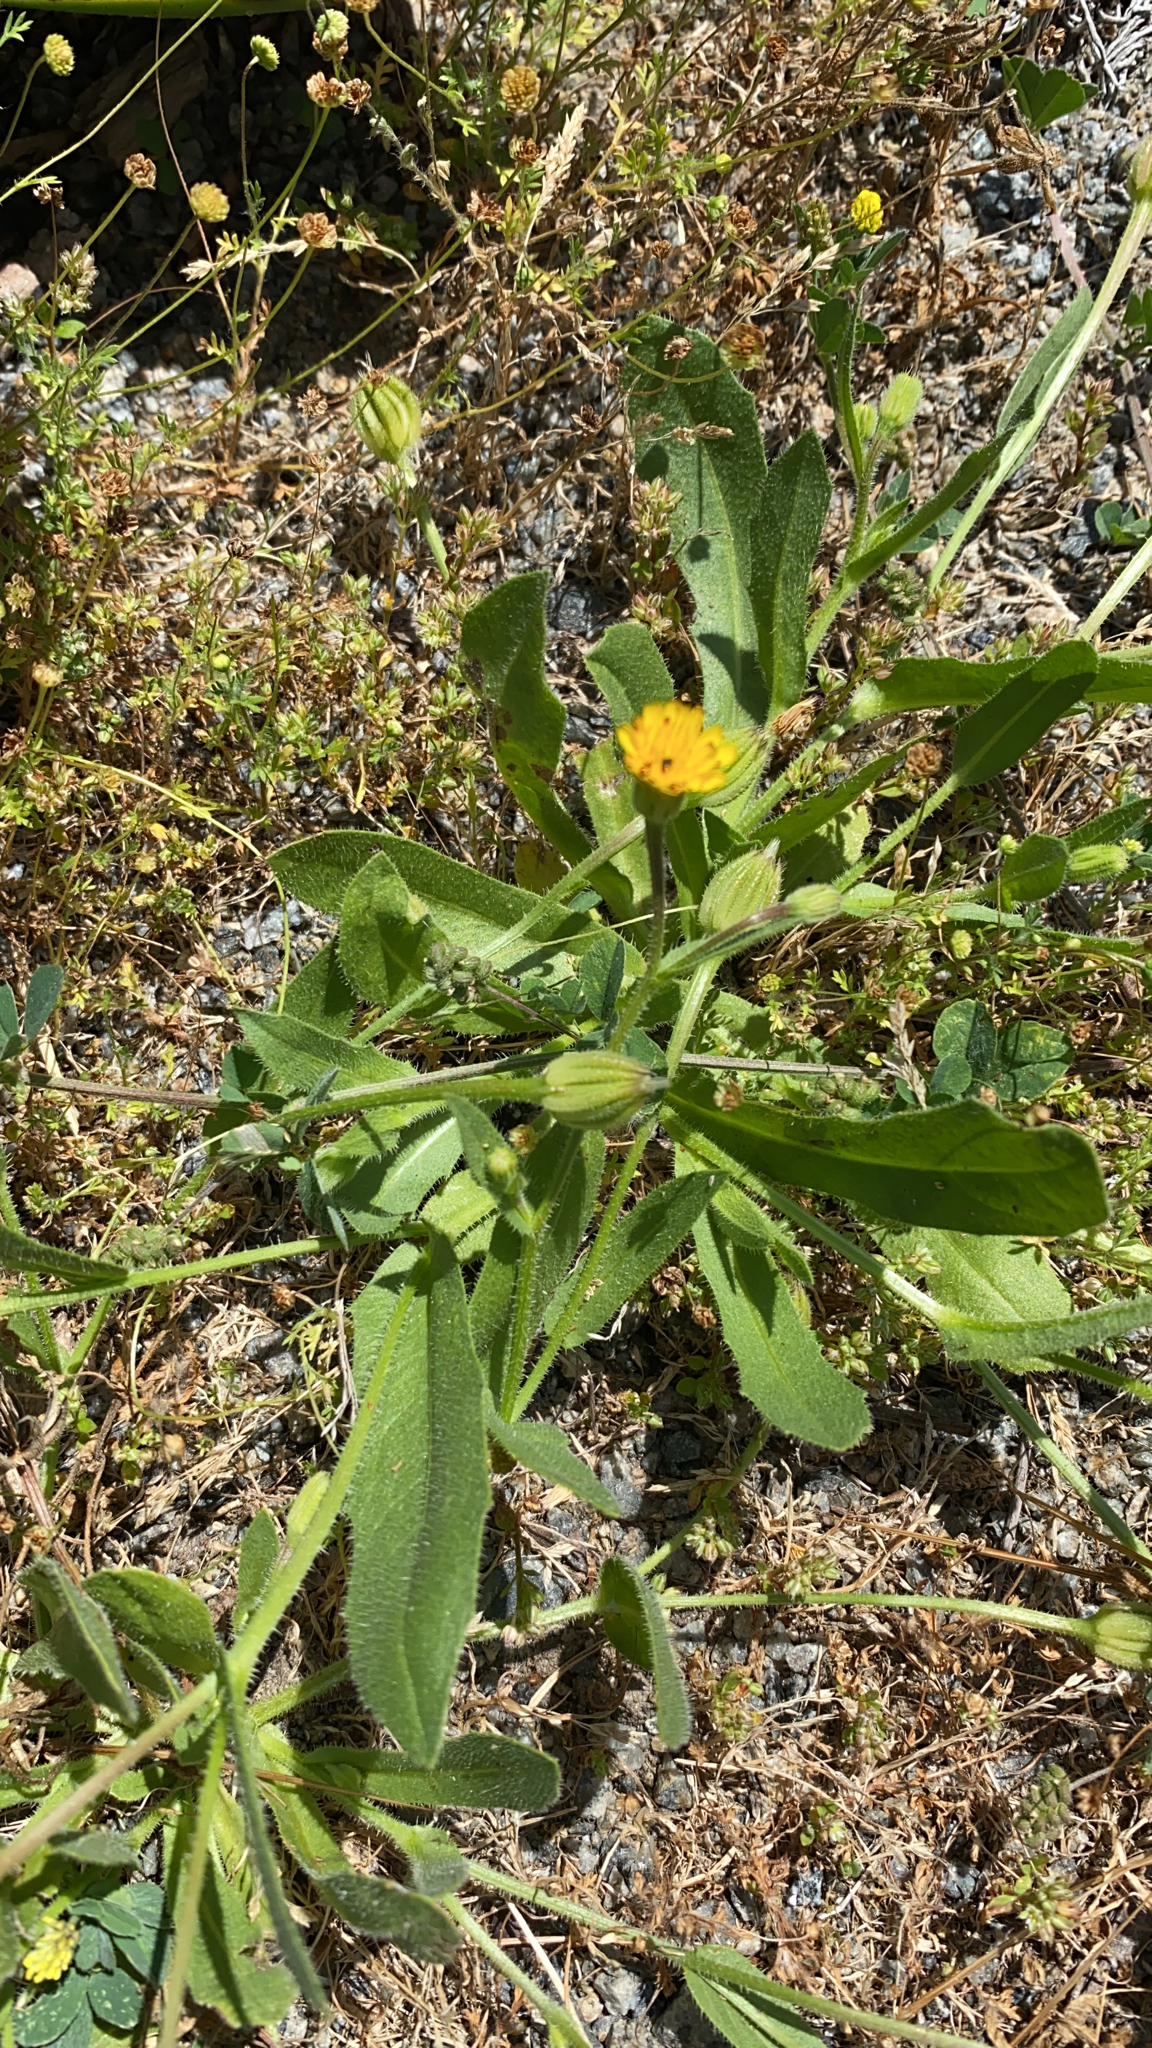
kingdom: Plantae
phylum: Tracheophyta
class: Magnoliopsida
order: Asterales
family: Asteraceae
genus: Hedypnois
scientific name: Hedypnois rhagadioloides
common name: Cretan weed
